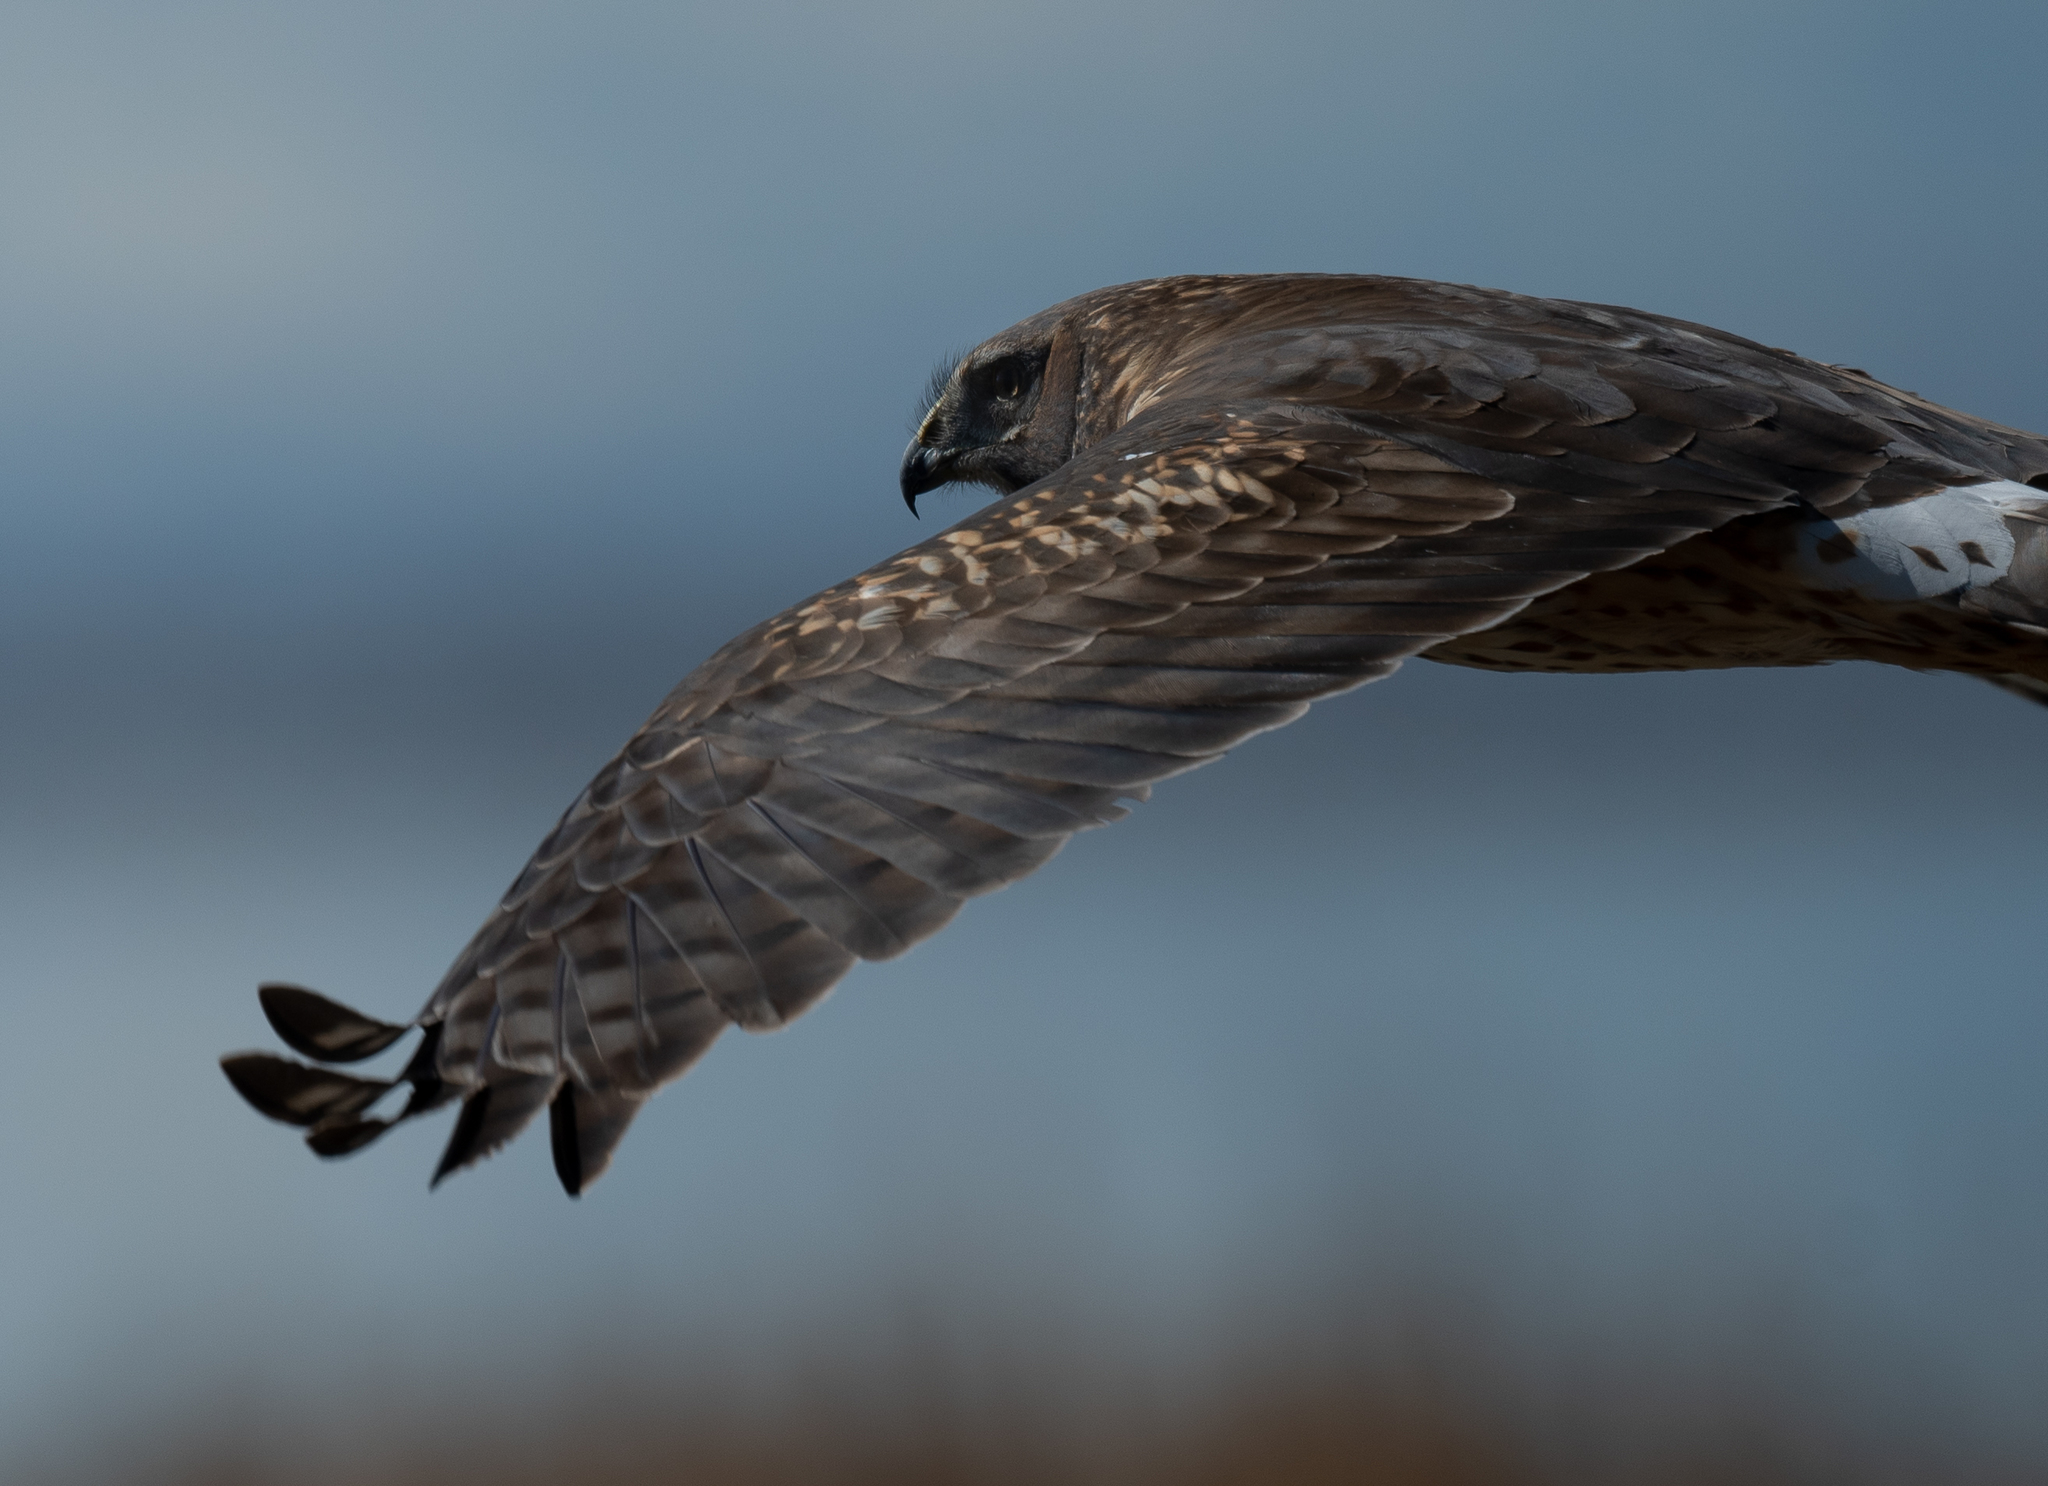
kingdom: Animalia
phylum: Chordata
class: Aves
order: Accipitriformes
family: Accipitridae
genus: Circus
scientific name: Circus cyaneus
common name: Hen harrier
